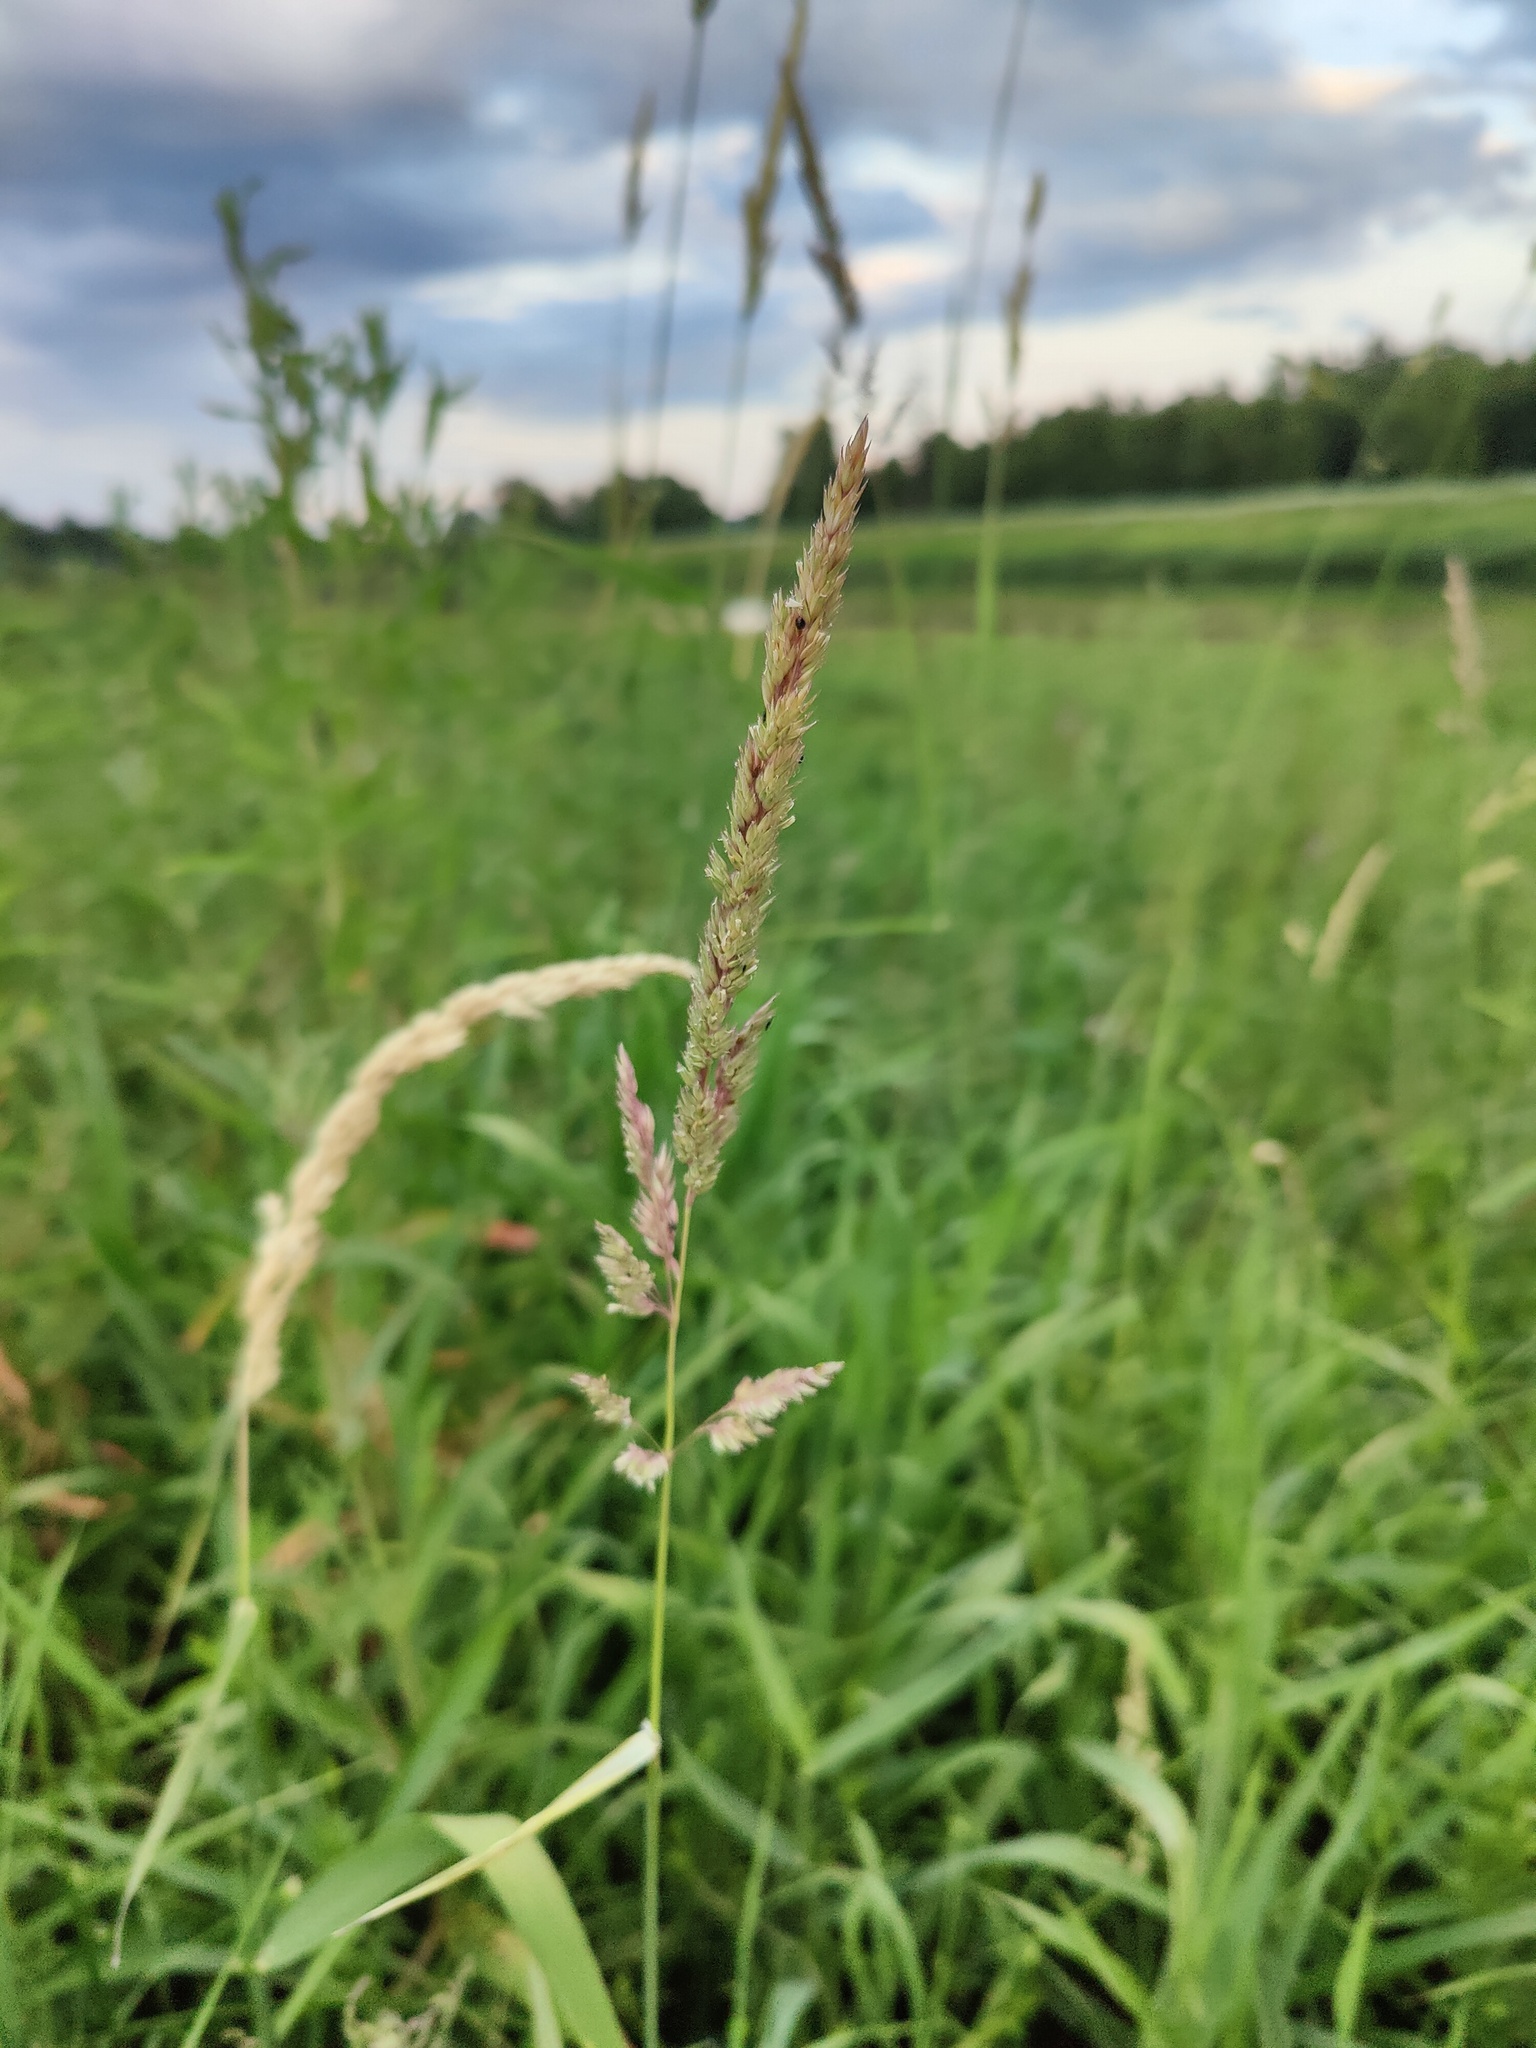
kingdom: Plantae
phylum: Tracheophyta
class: Liliopsida
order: Poales
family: Poaceae
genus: Phalaris
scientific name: Phalaris arundinacea
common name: Reed canary-grass
